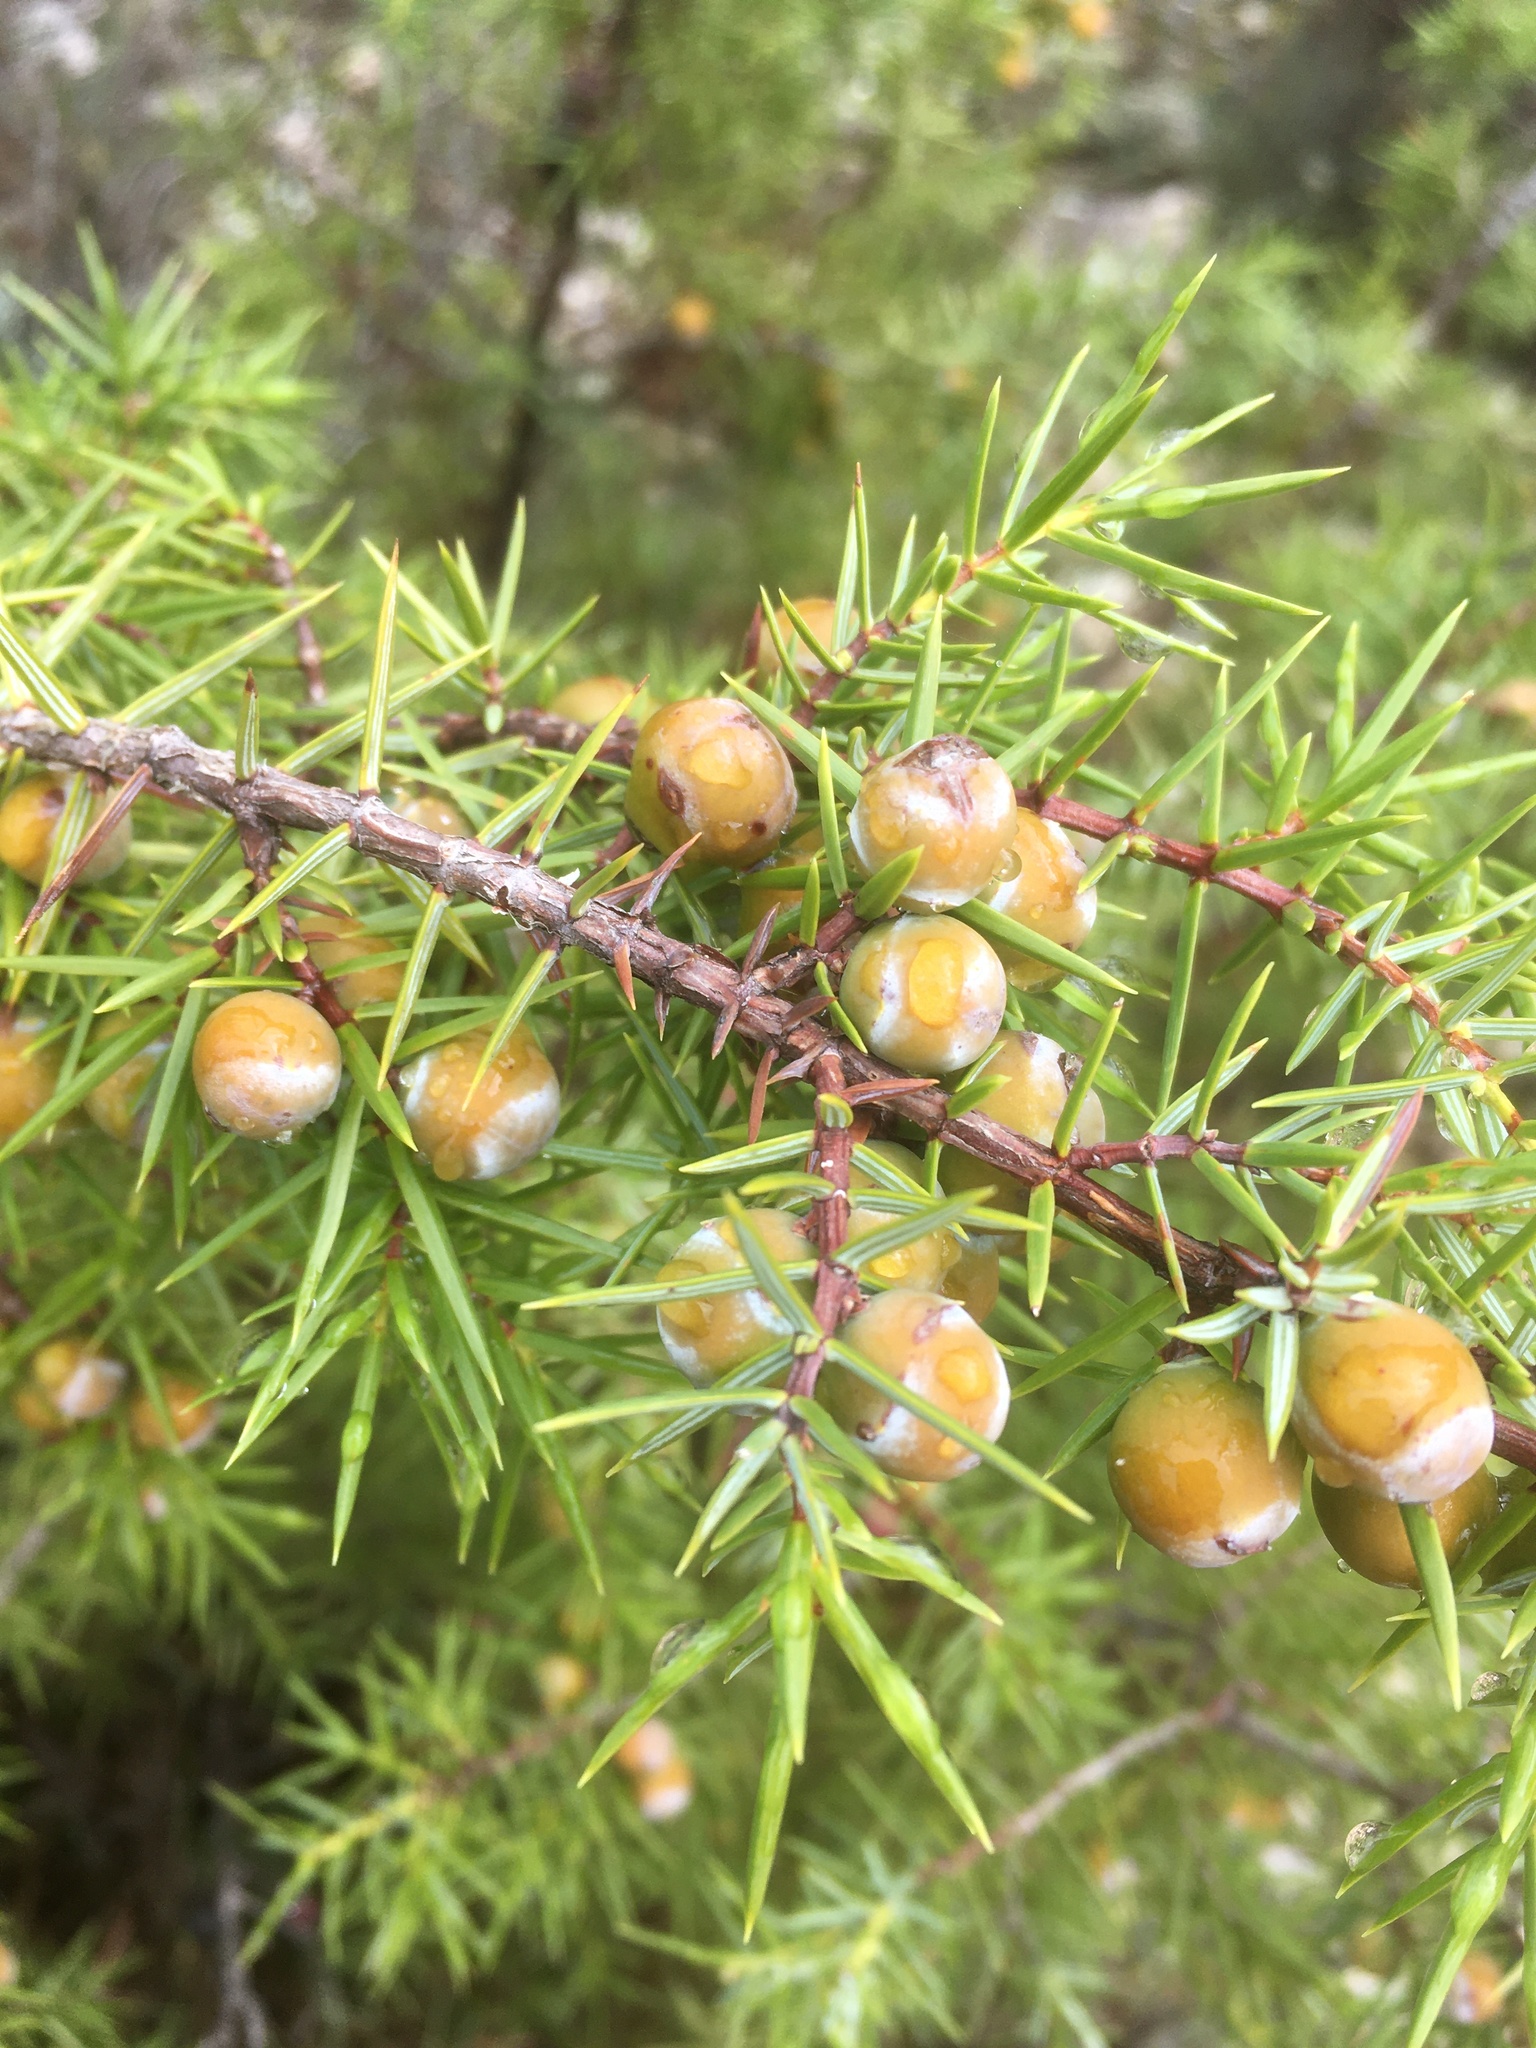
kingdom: Plantae
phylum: Tracheophyta
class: Pinopsida
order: Pinales
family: Cupressaceae
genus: Juniperus
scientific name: Juniperus oxycedrus
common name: Prickly juniper
